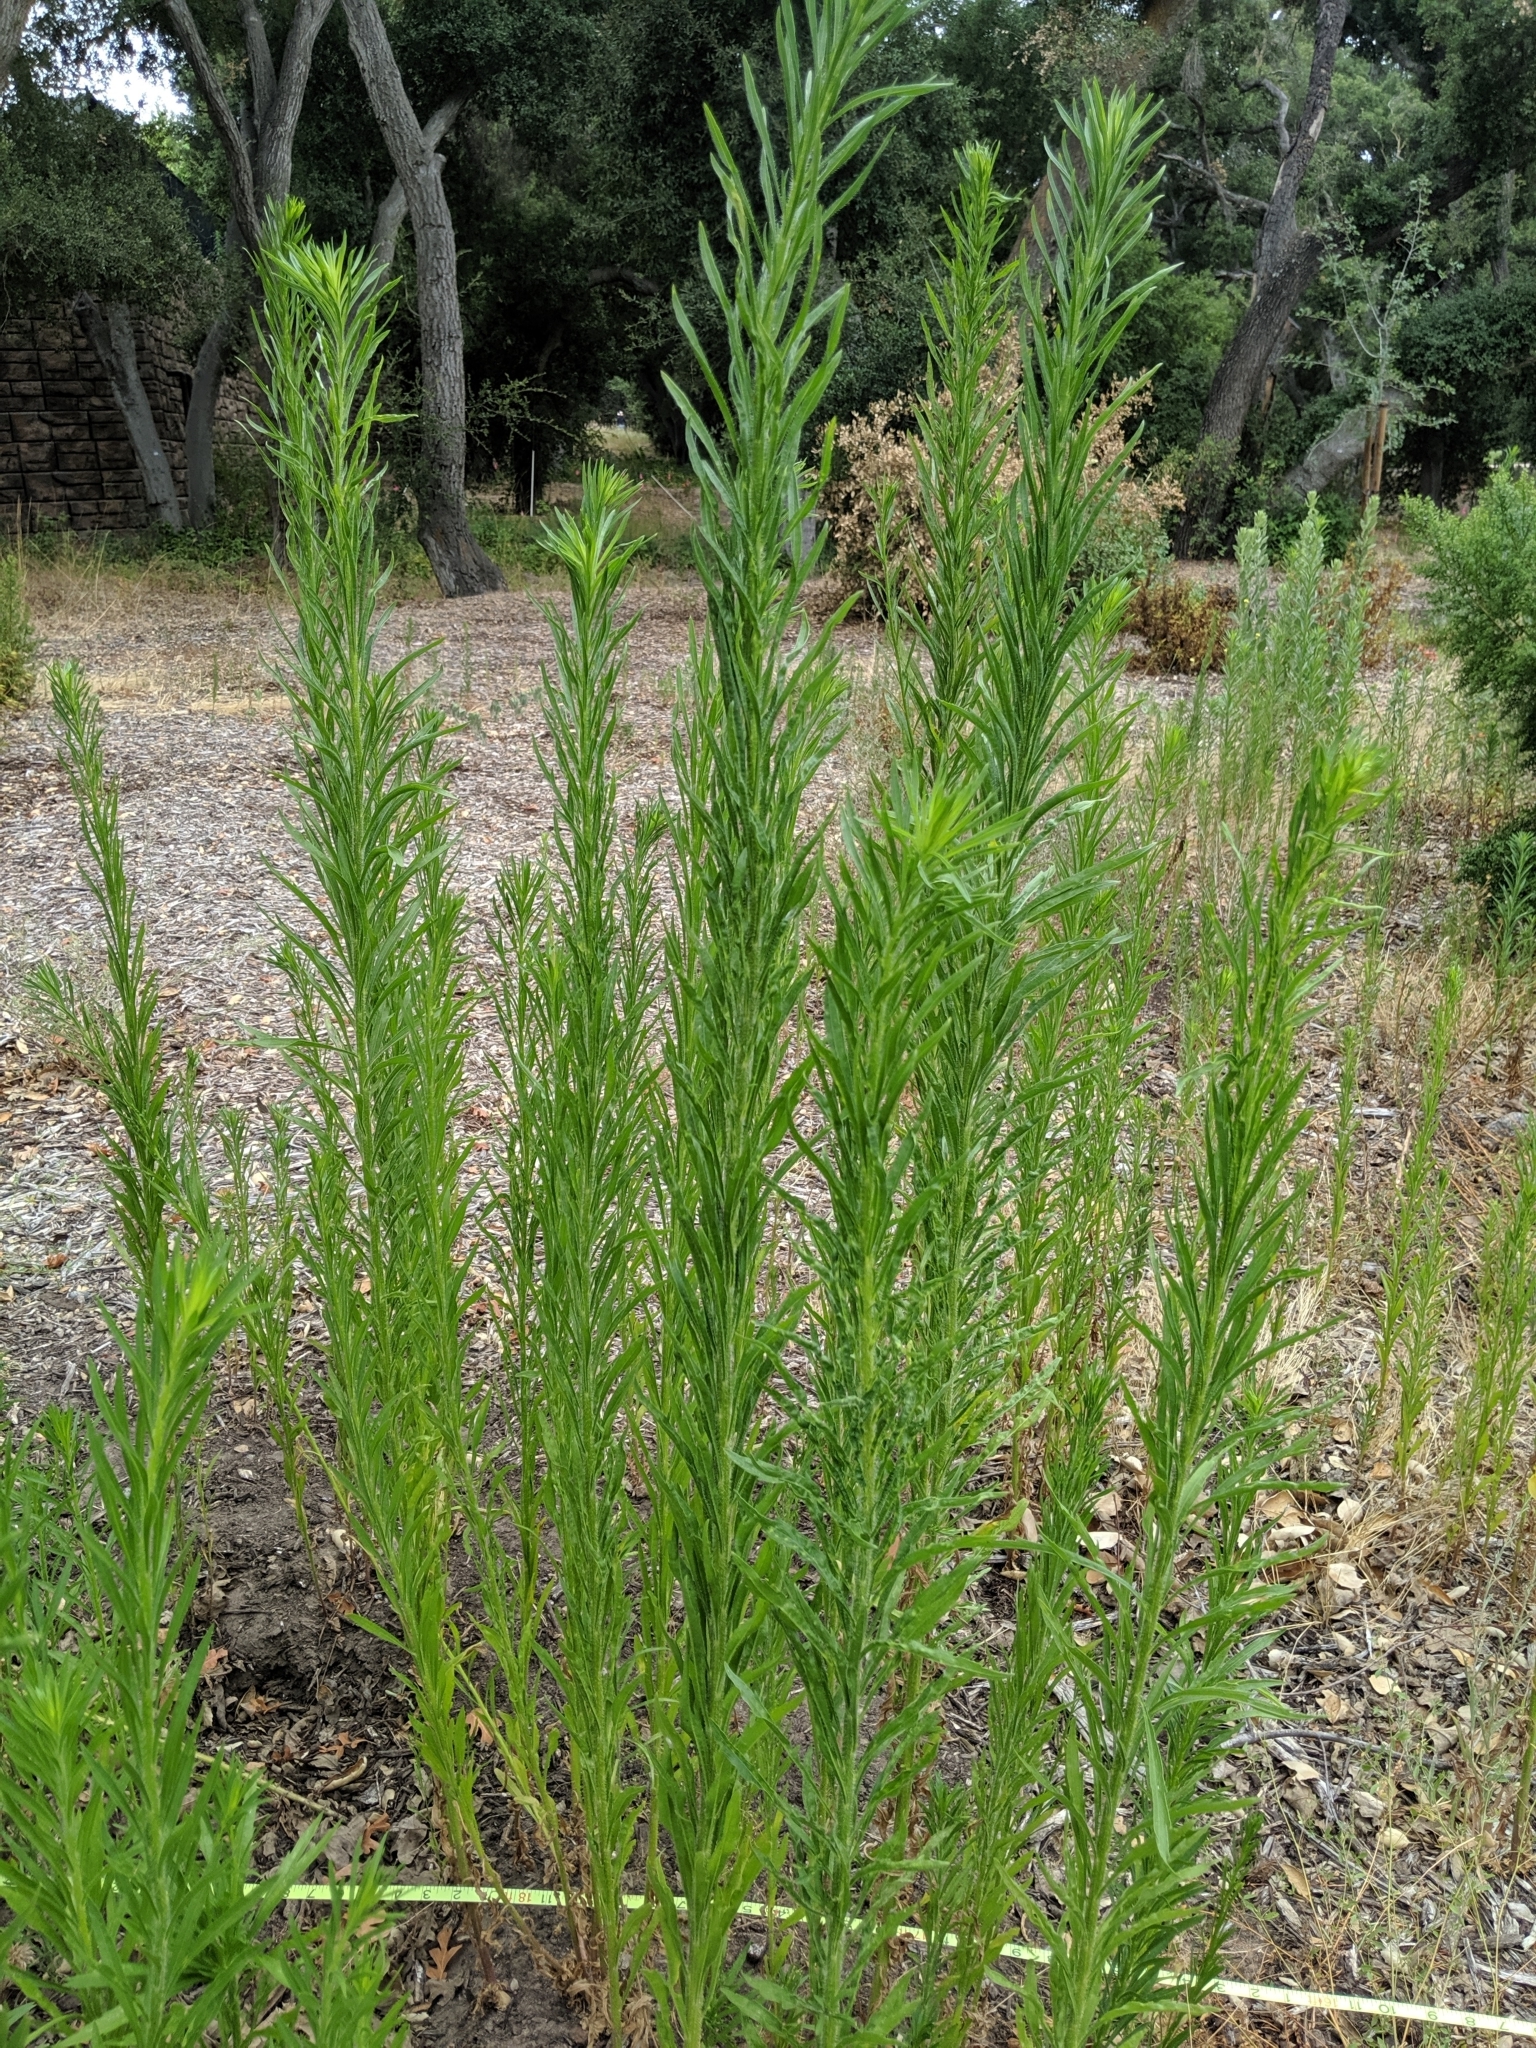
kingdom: Plantae
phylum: Tracheophyta
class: Magnoliopsida
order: Asterales
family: Asteraceae
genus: Erigeron
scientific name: Erigeron canadensis
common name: Canadian fleabane
